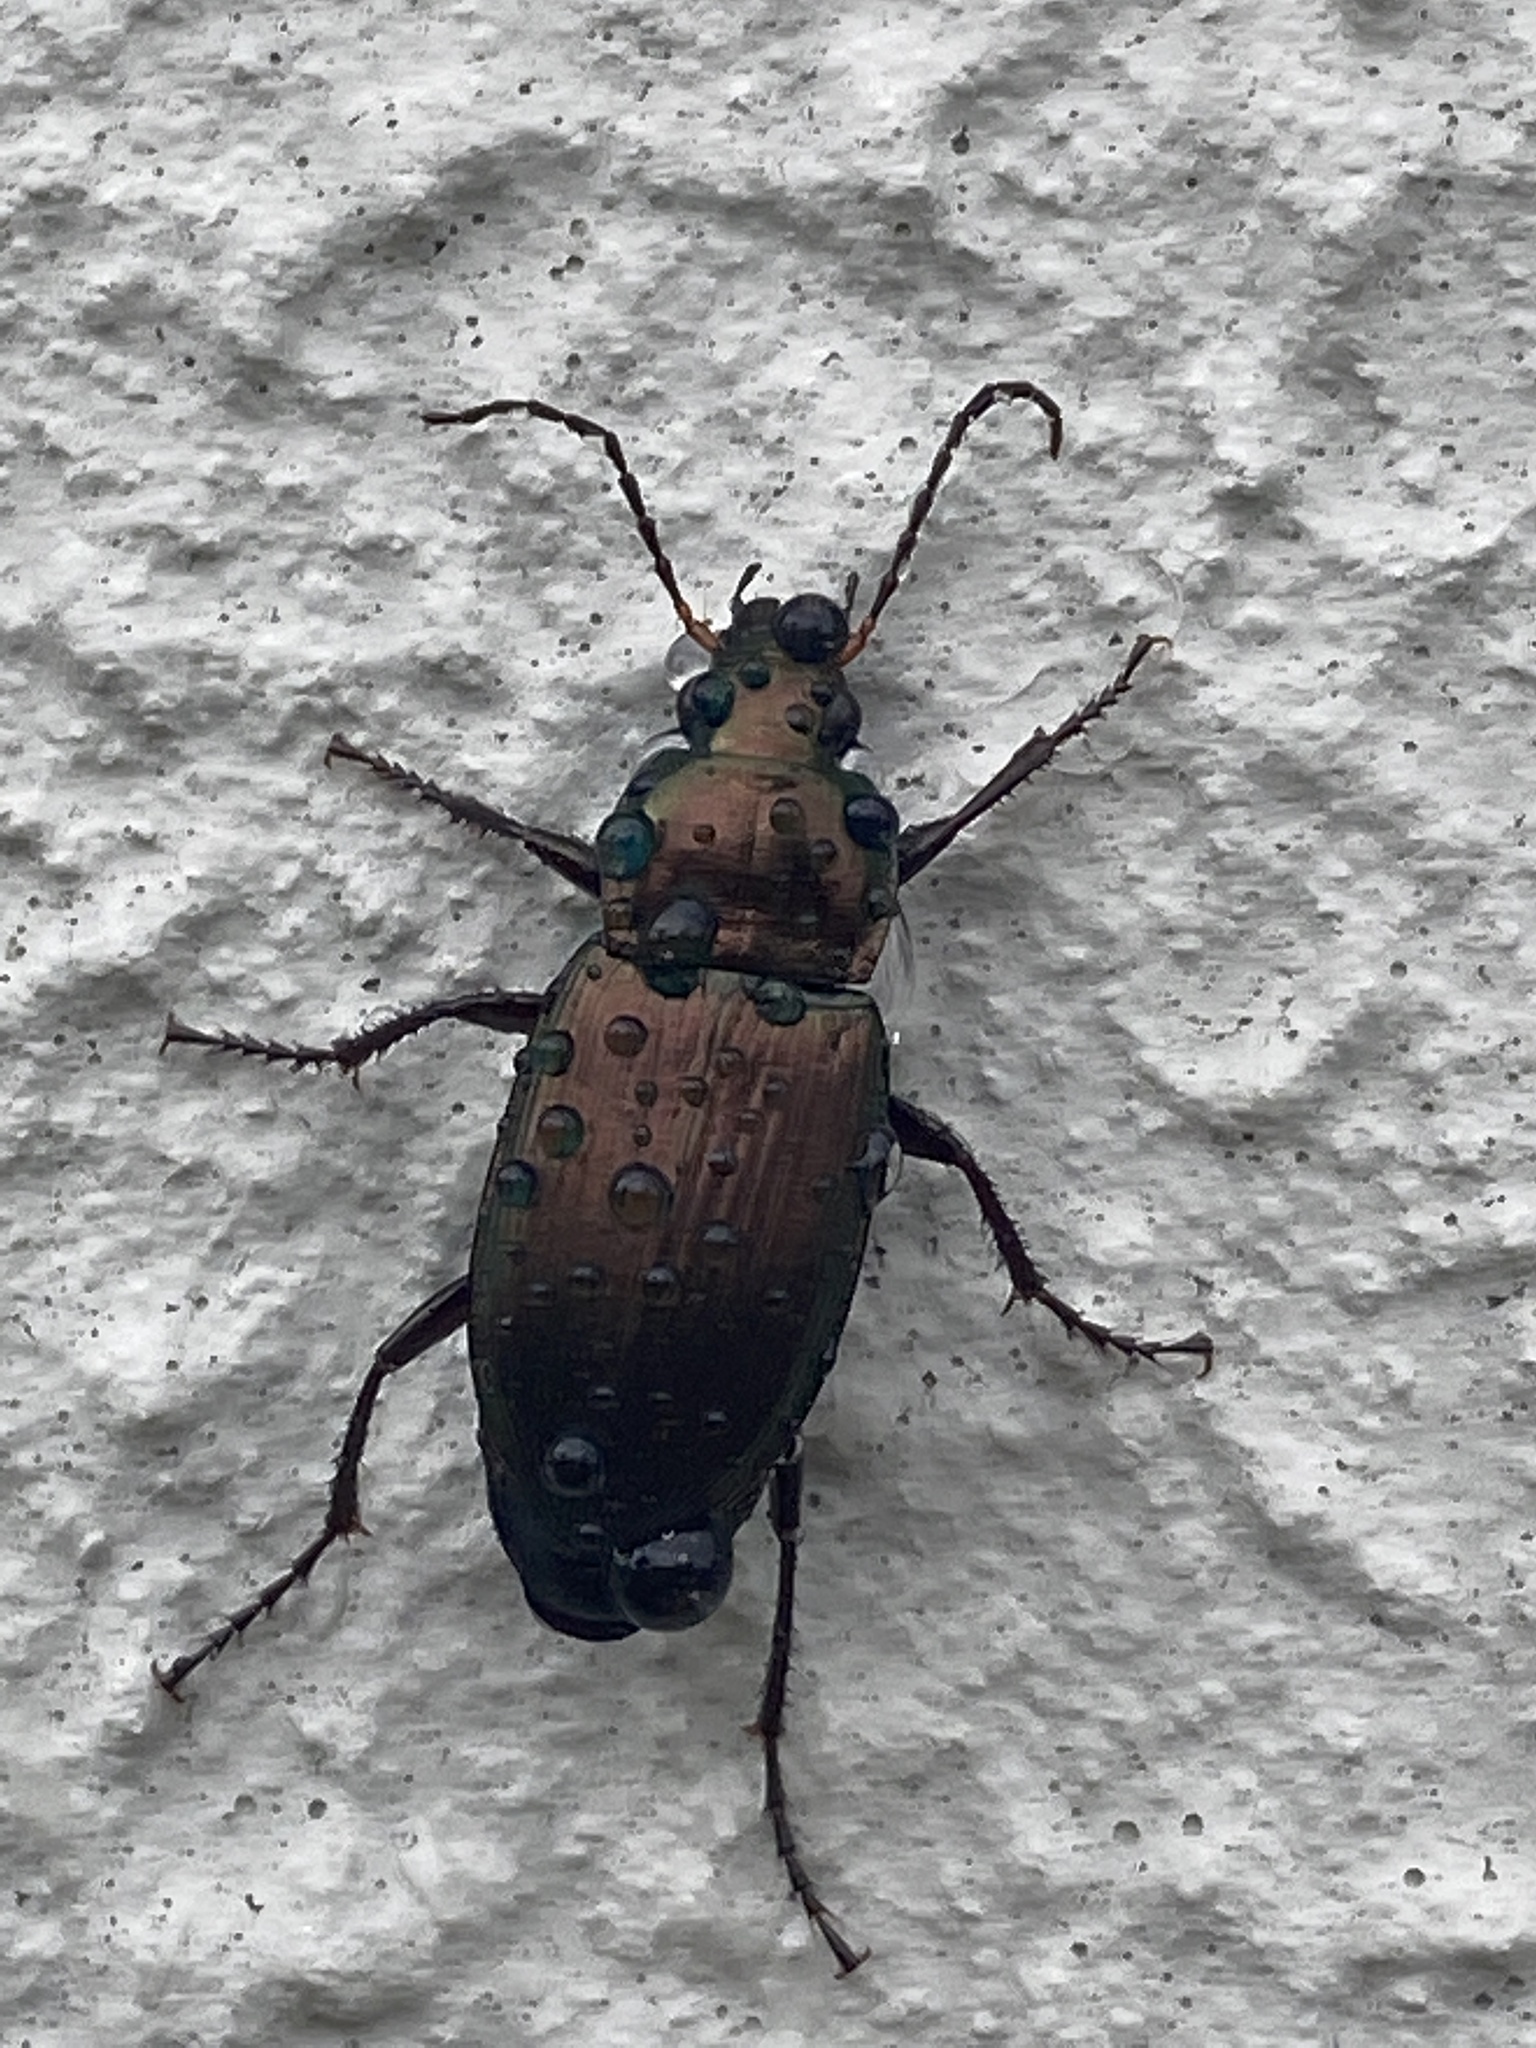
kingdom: Animalia
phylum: Arthropoda
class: Insecta
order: Coleoptera
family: Carabidae
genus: Poecilus
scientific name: Poecilus cupreus
